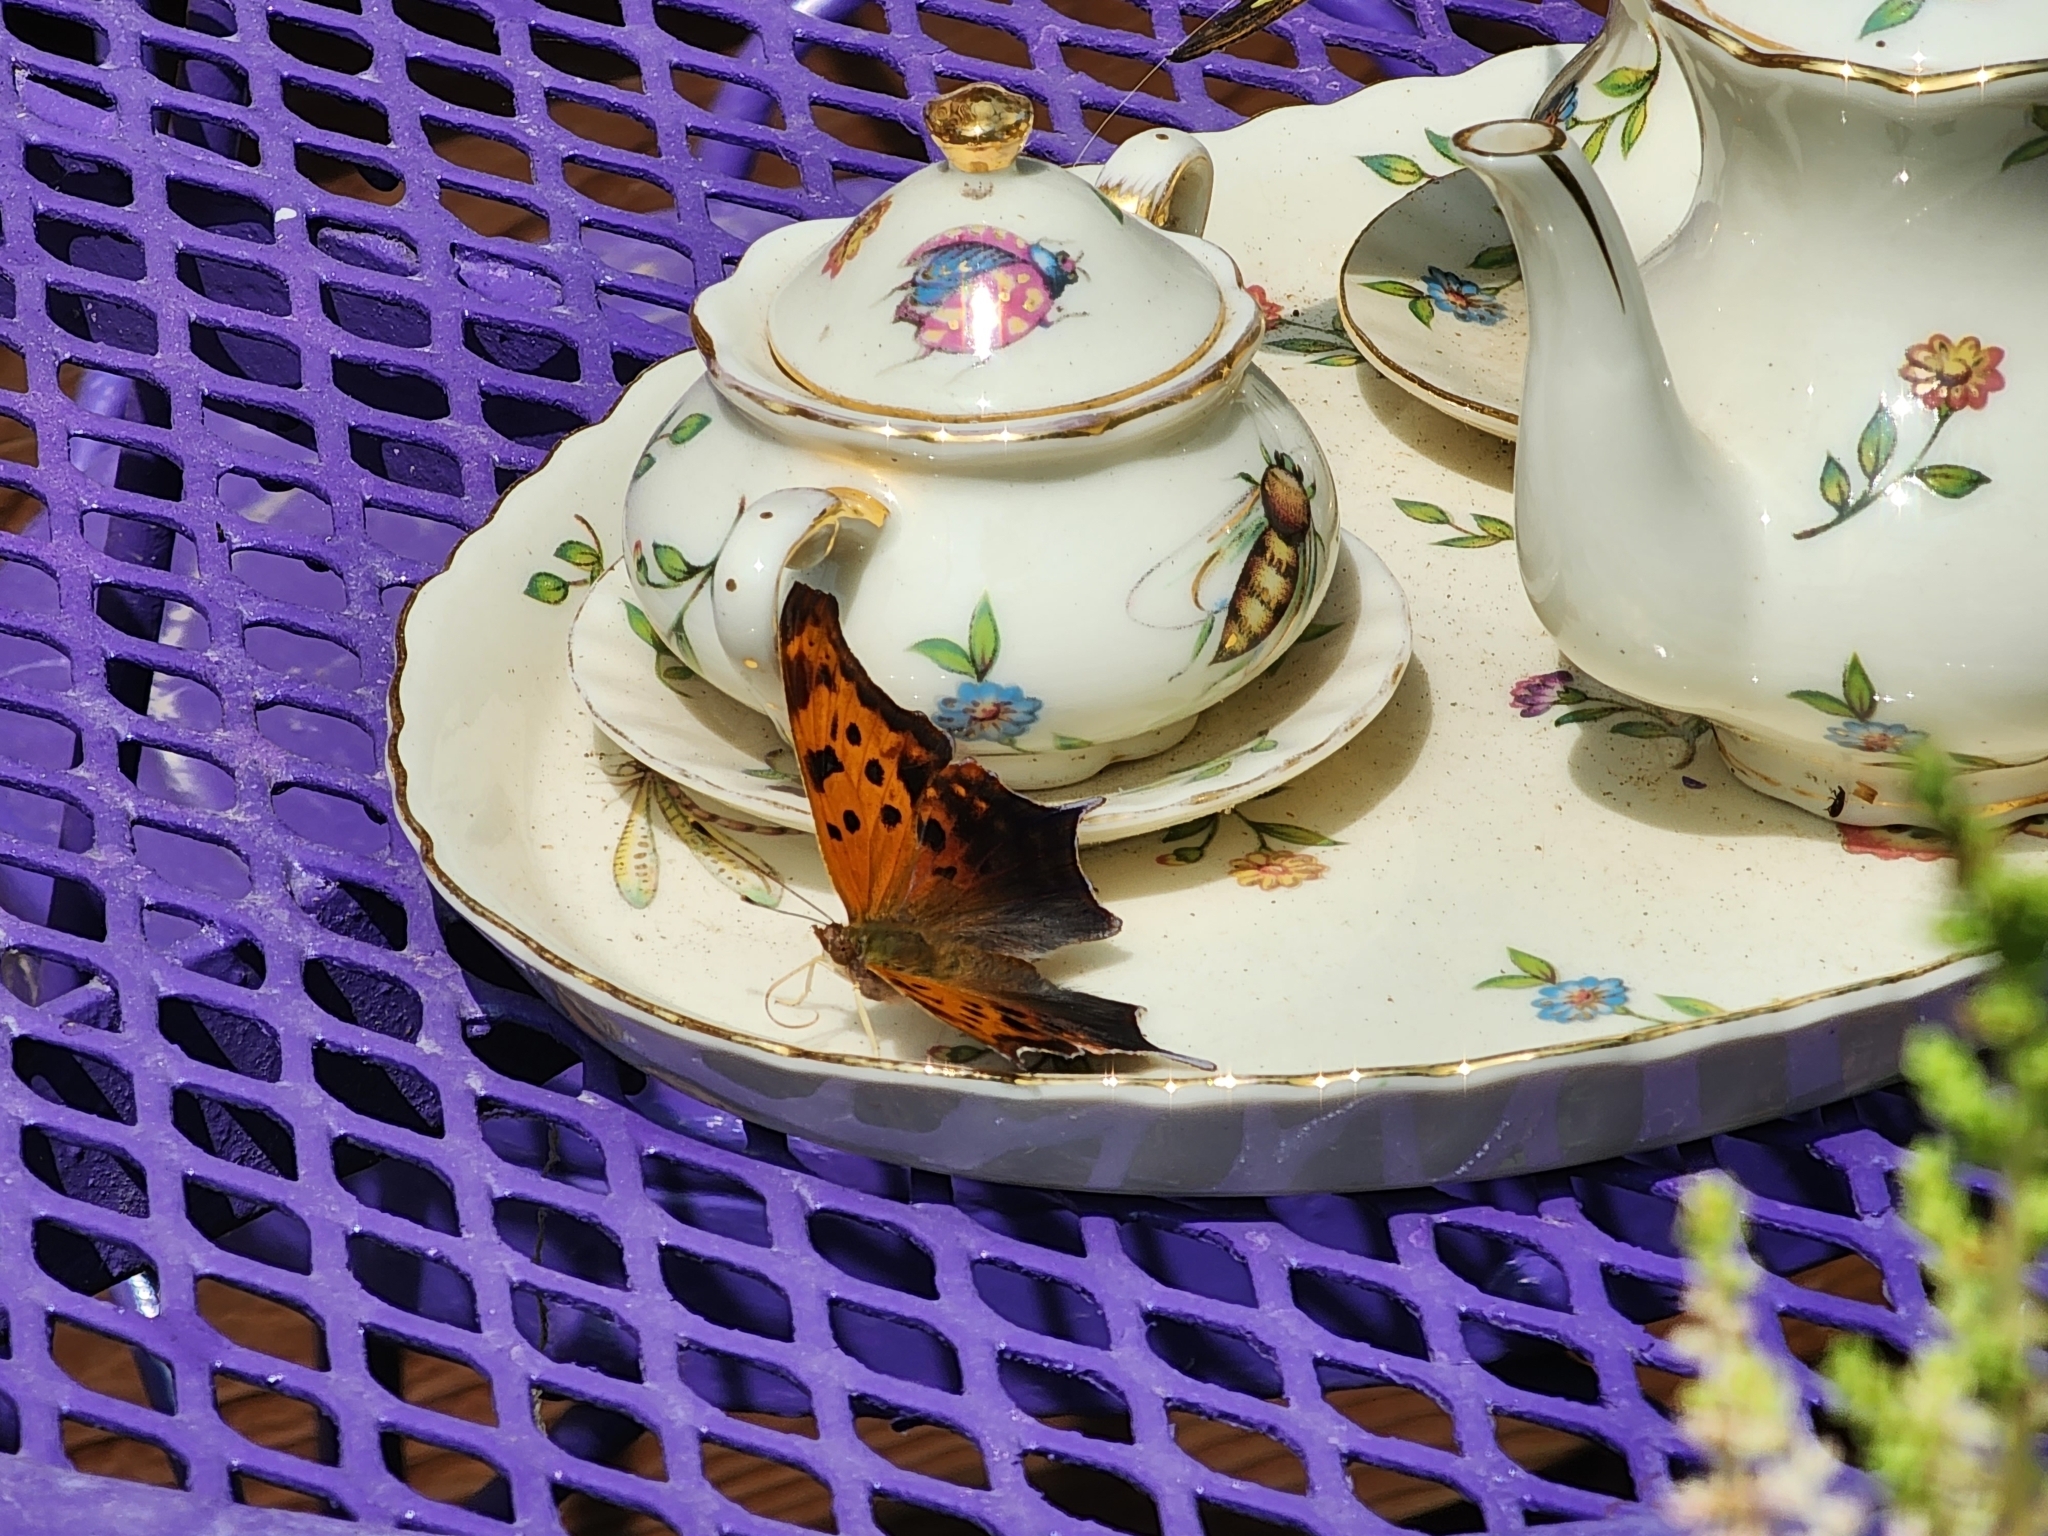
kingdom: Animalia
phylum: Arthropoda
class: Insecta
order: Lepidoptera
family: Nymphalidae
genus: Polygonia
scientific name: Polygonia interrogationis
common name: Question mark
